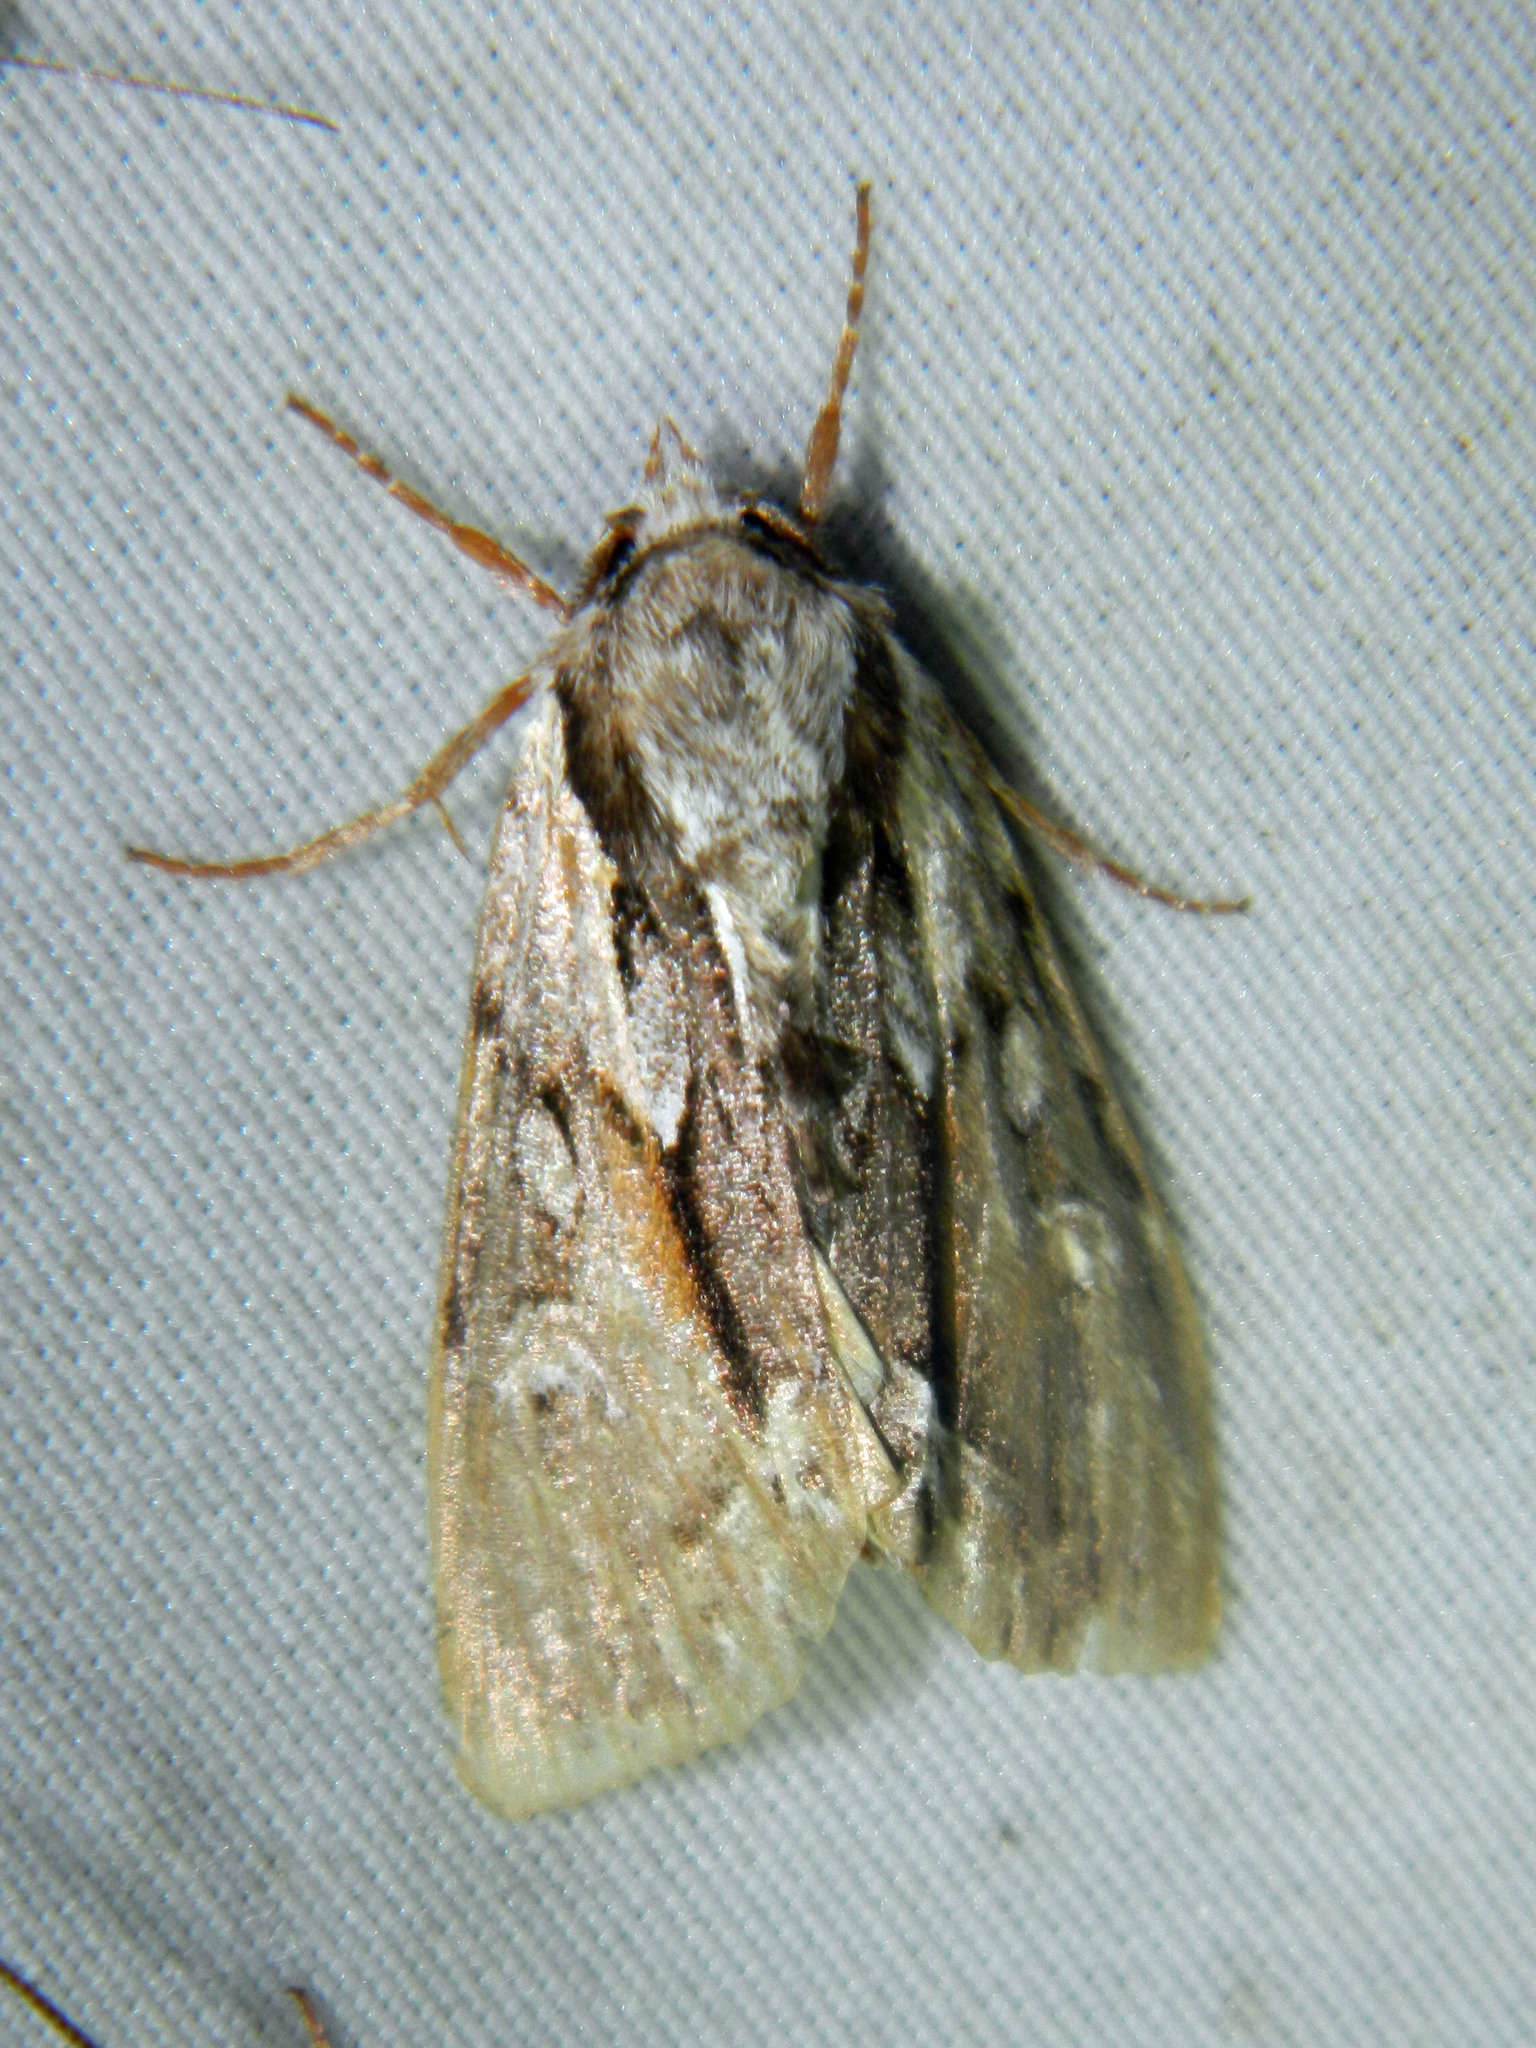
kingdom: Animalia
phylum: Arthropoda
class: Insecta
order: Lepidoptera
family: Noctuidae
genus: Hyppa
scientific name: Hyppa xylinoides
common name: Common hyppa moth
